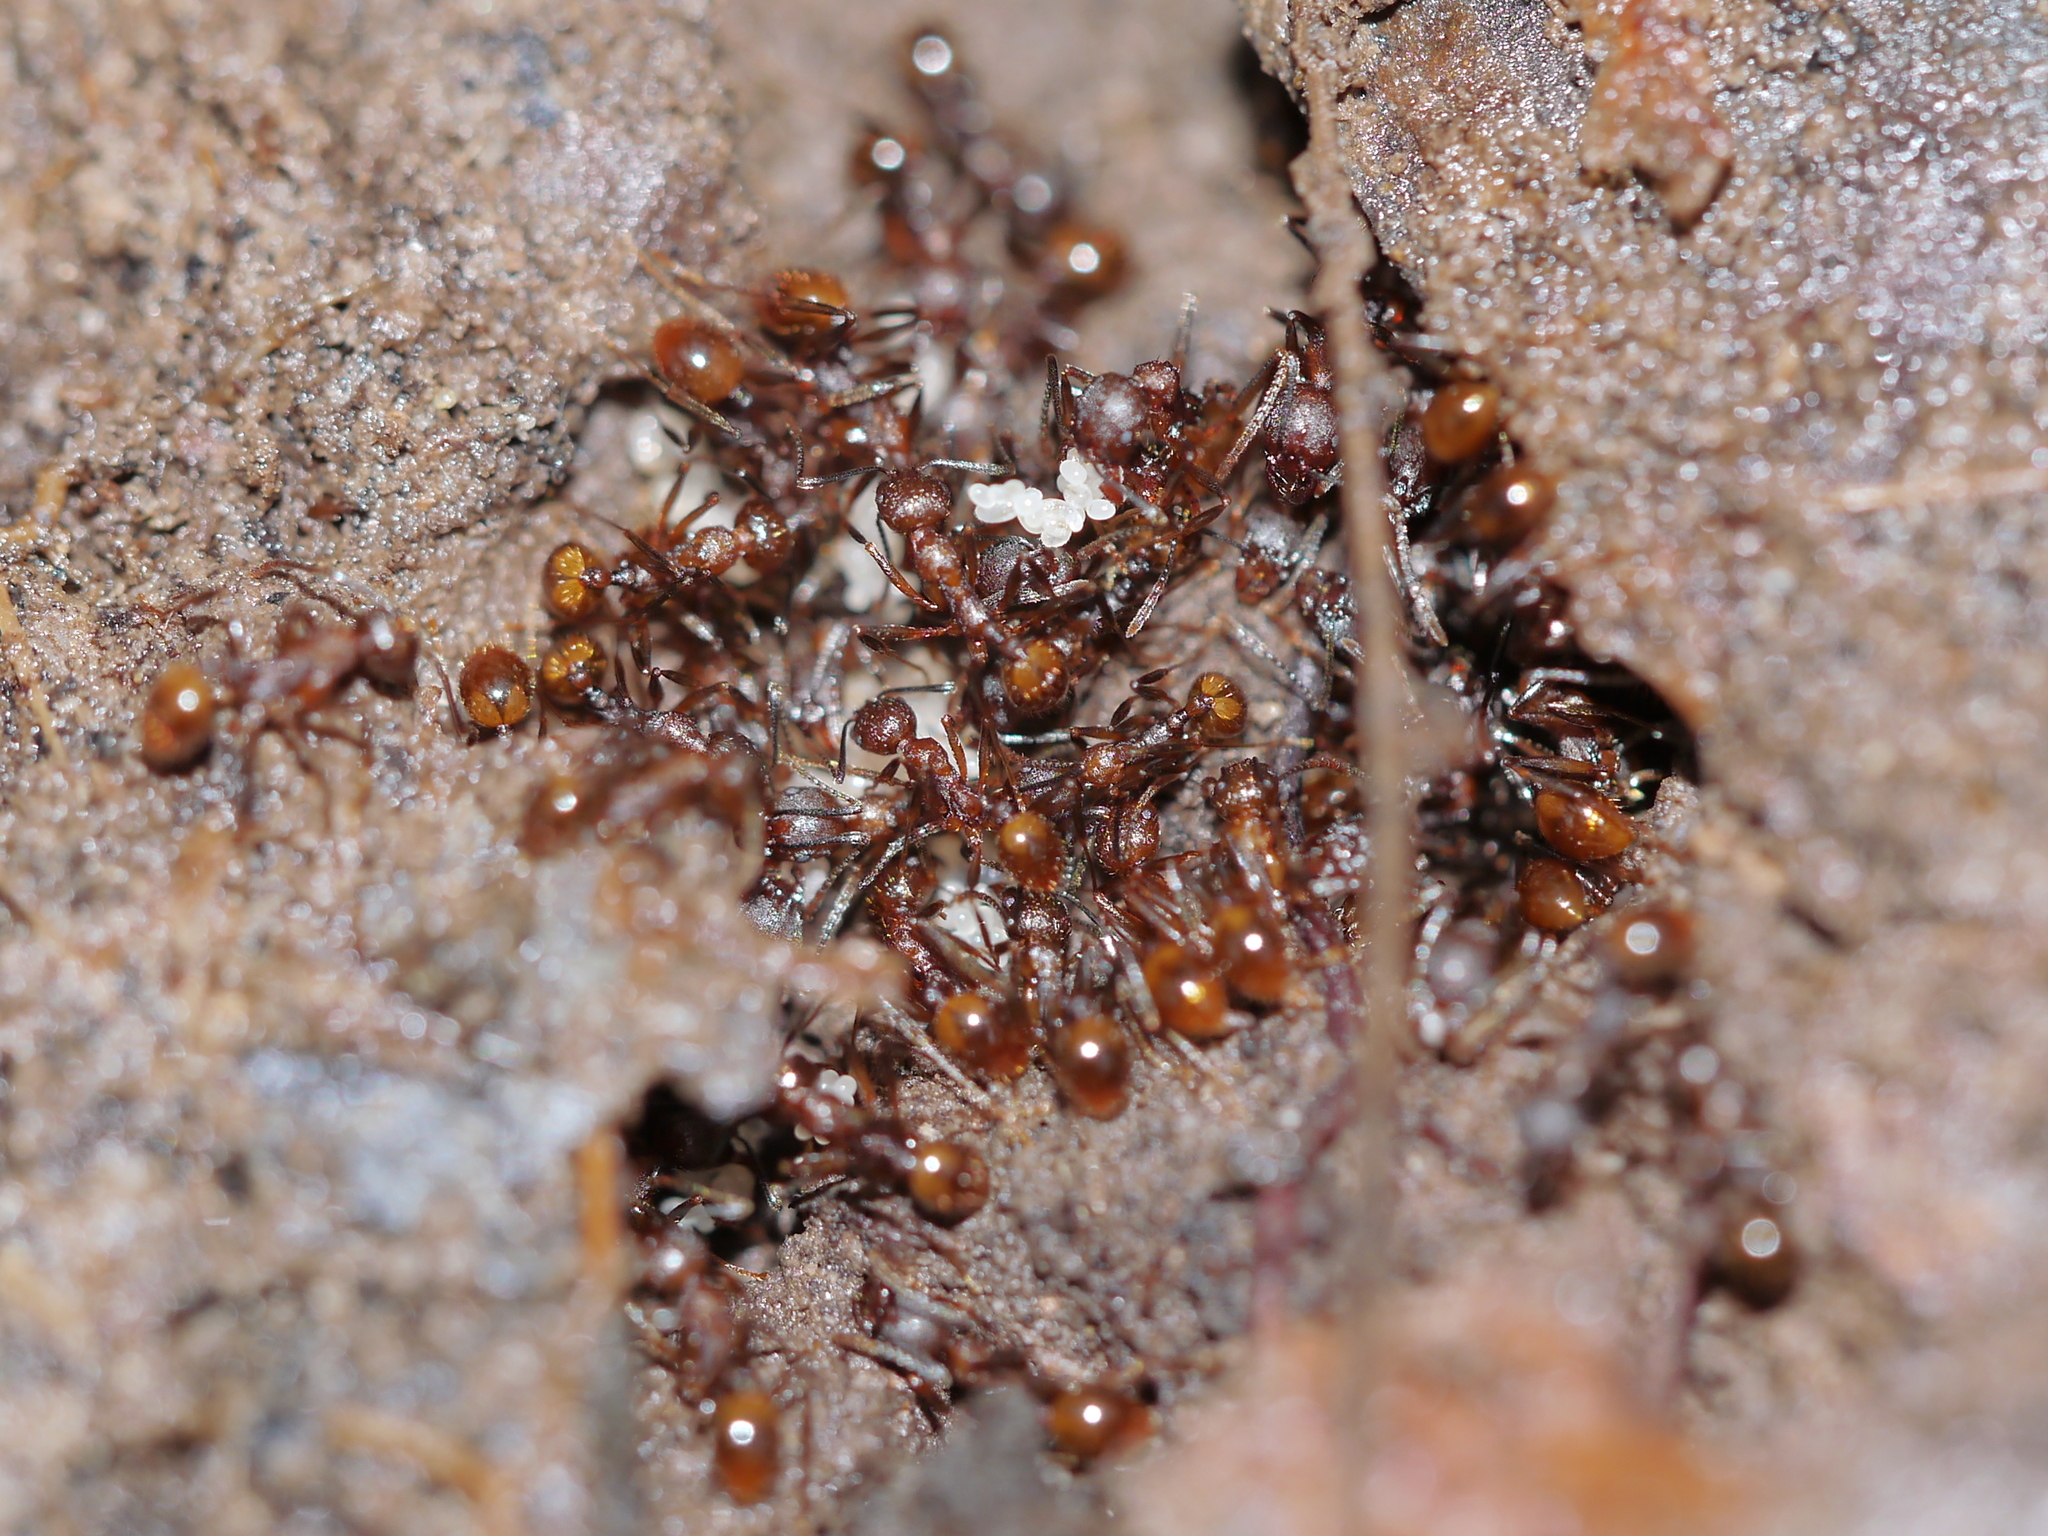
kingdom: Animalia
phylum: Arthropoda
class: Insecta
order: Hymenoptera
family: Formicidae
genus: Aphaenogaster
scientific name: Aphaenogaster fulva
